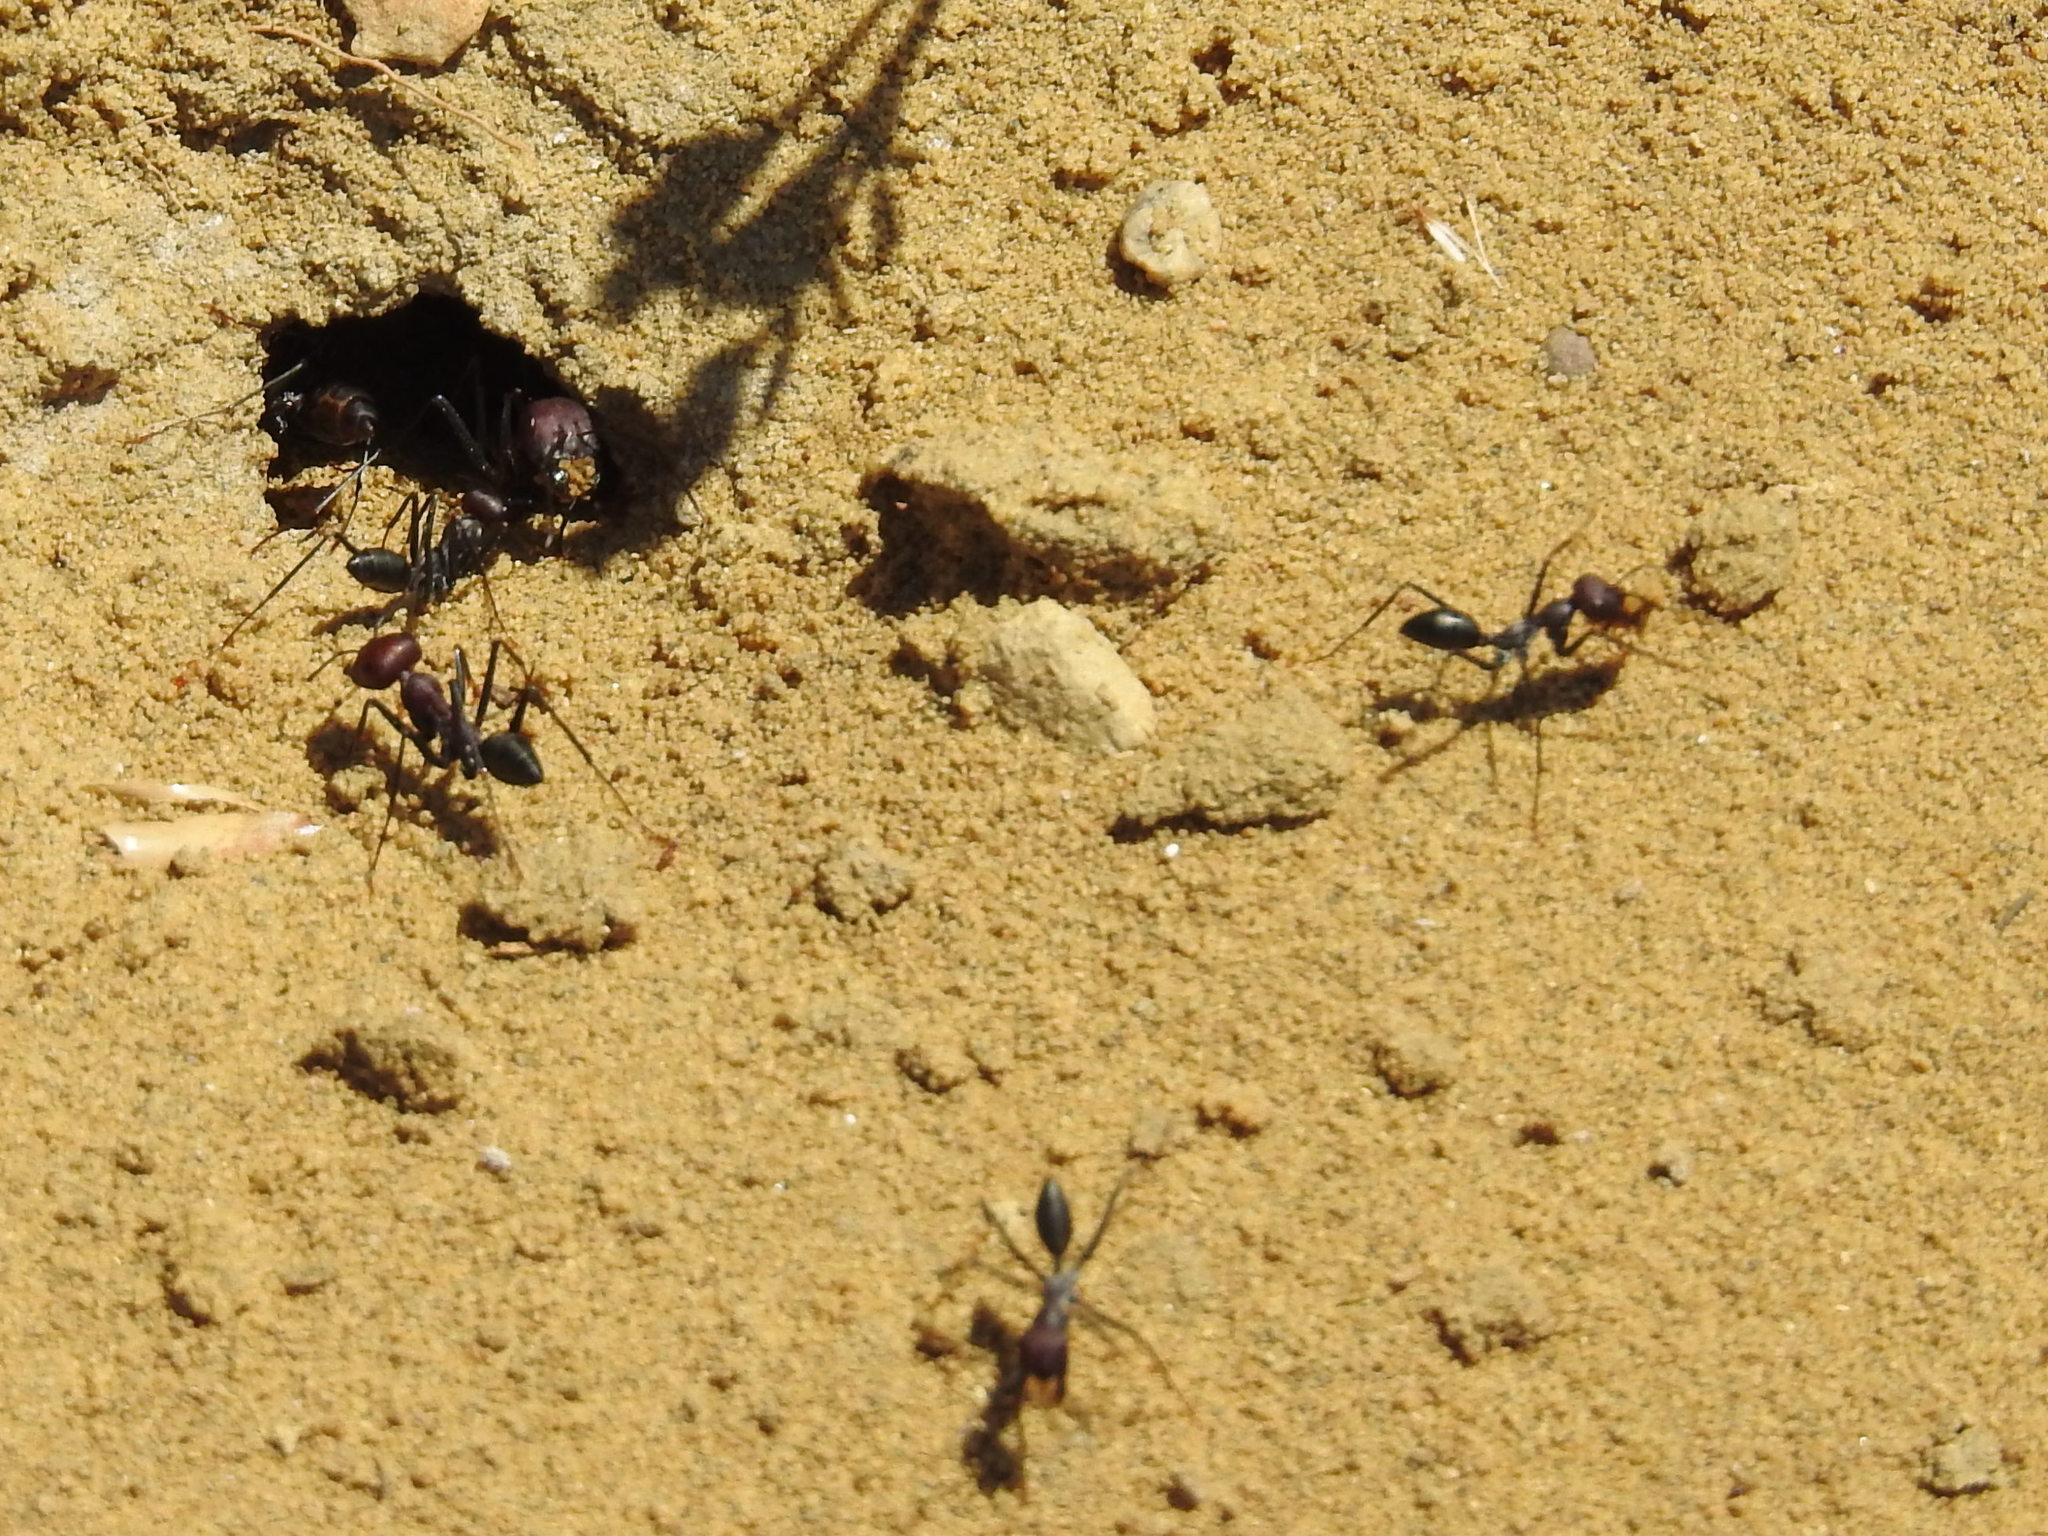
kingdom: Animalia
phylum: Arthropoda
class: Insecta
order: Hymenoptera
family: Formicidae
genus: Cataglyphis
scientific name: Cataglyphis nodus
